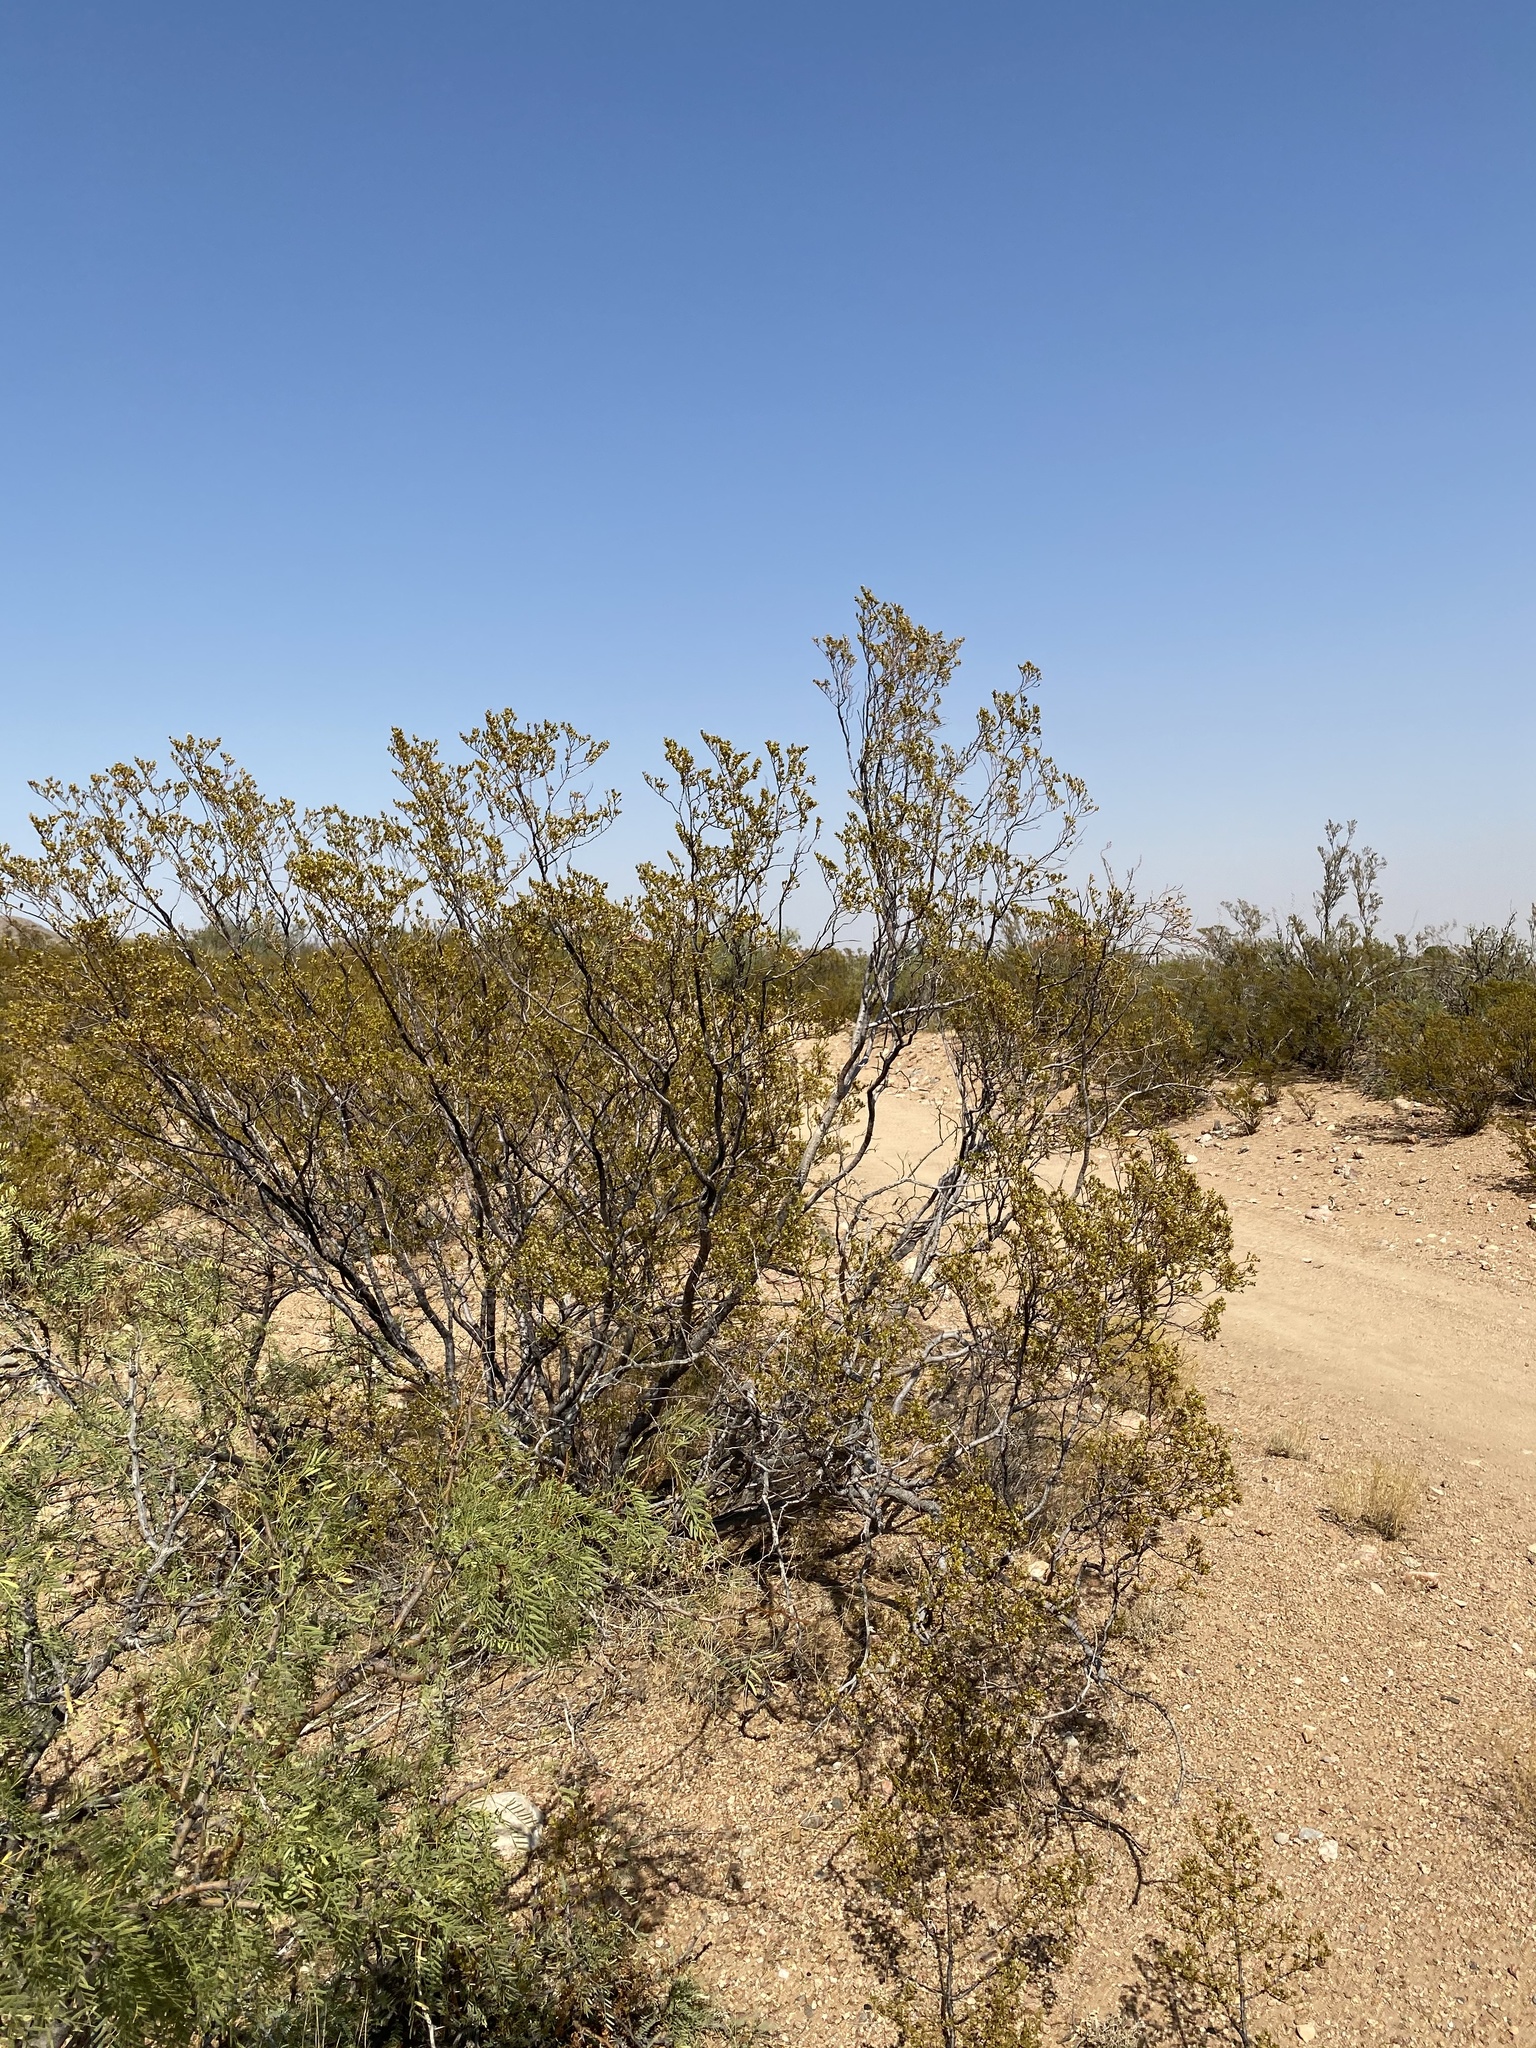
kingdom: Plantae
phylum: Tracheophyta
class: Magnoliopsida
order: Zygophyllales
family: Zygophyllaceae
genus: Larrea
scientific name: Larrea tridentata
